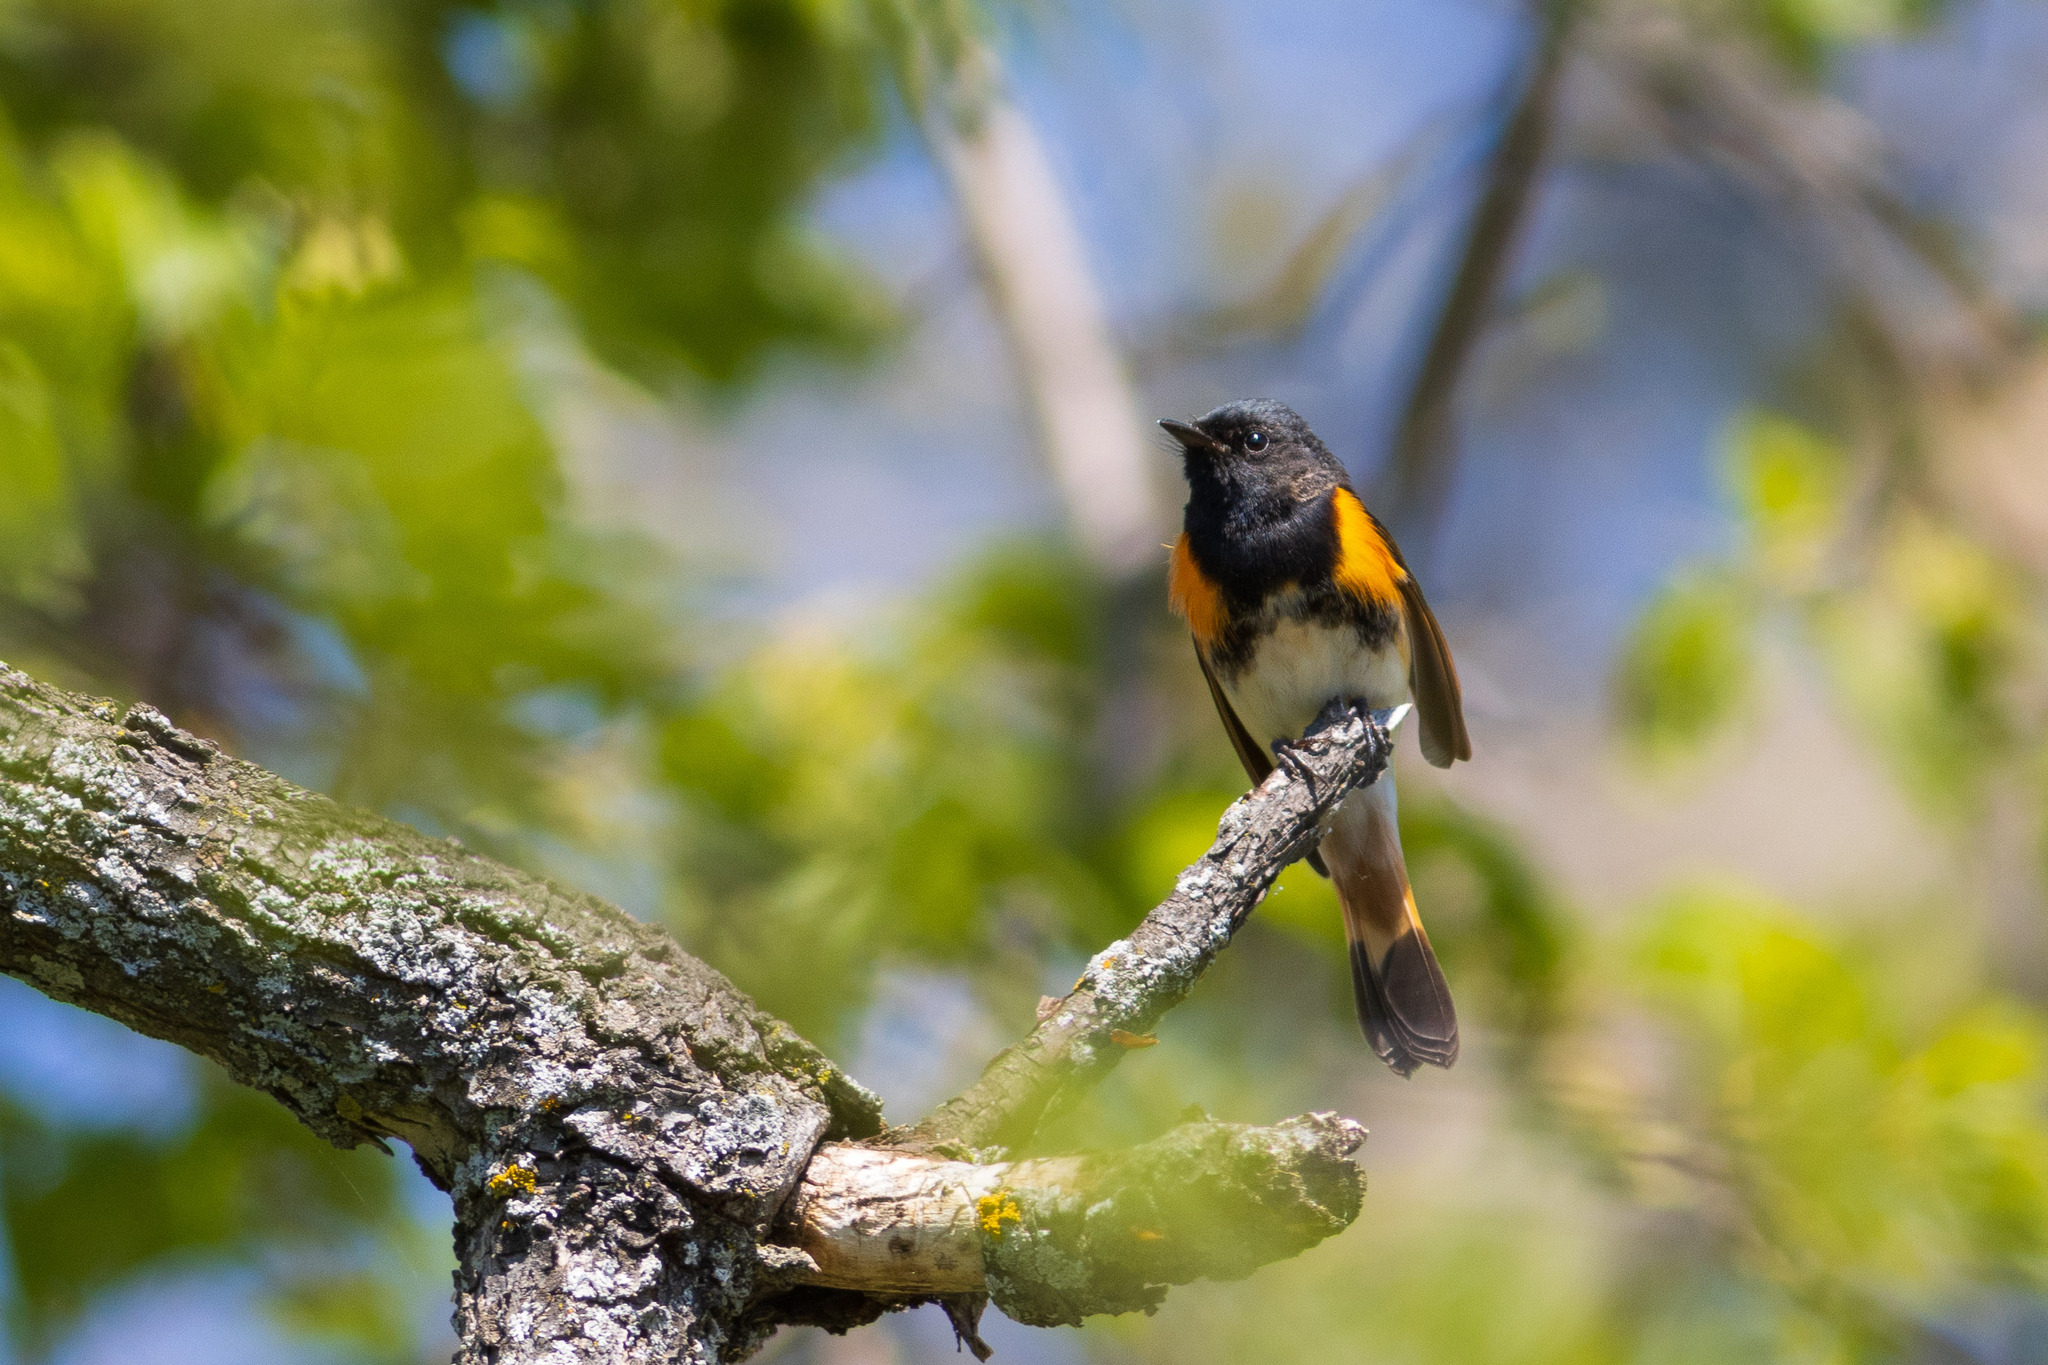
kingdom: Animalia
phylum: Chordata
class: Aves
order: Passeriformes
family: Parulidae
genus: Setophaga
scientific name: Setophaga ruticilla
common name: American redstart
